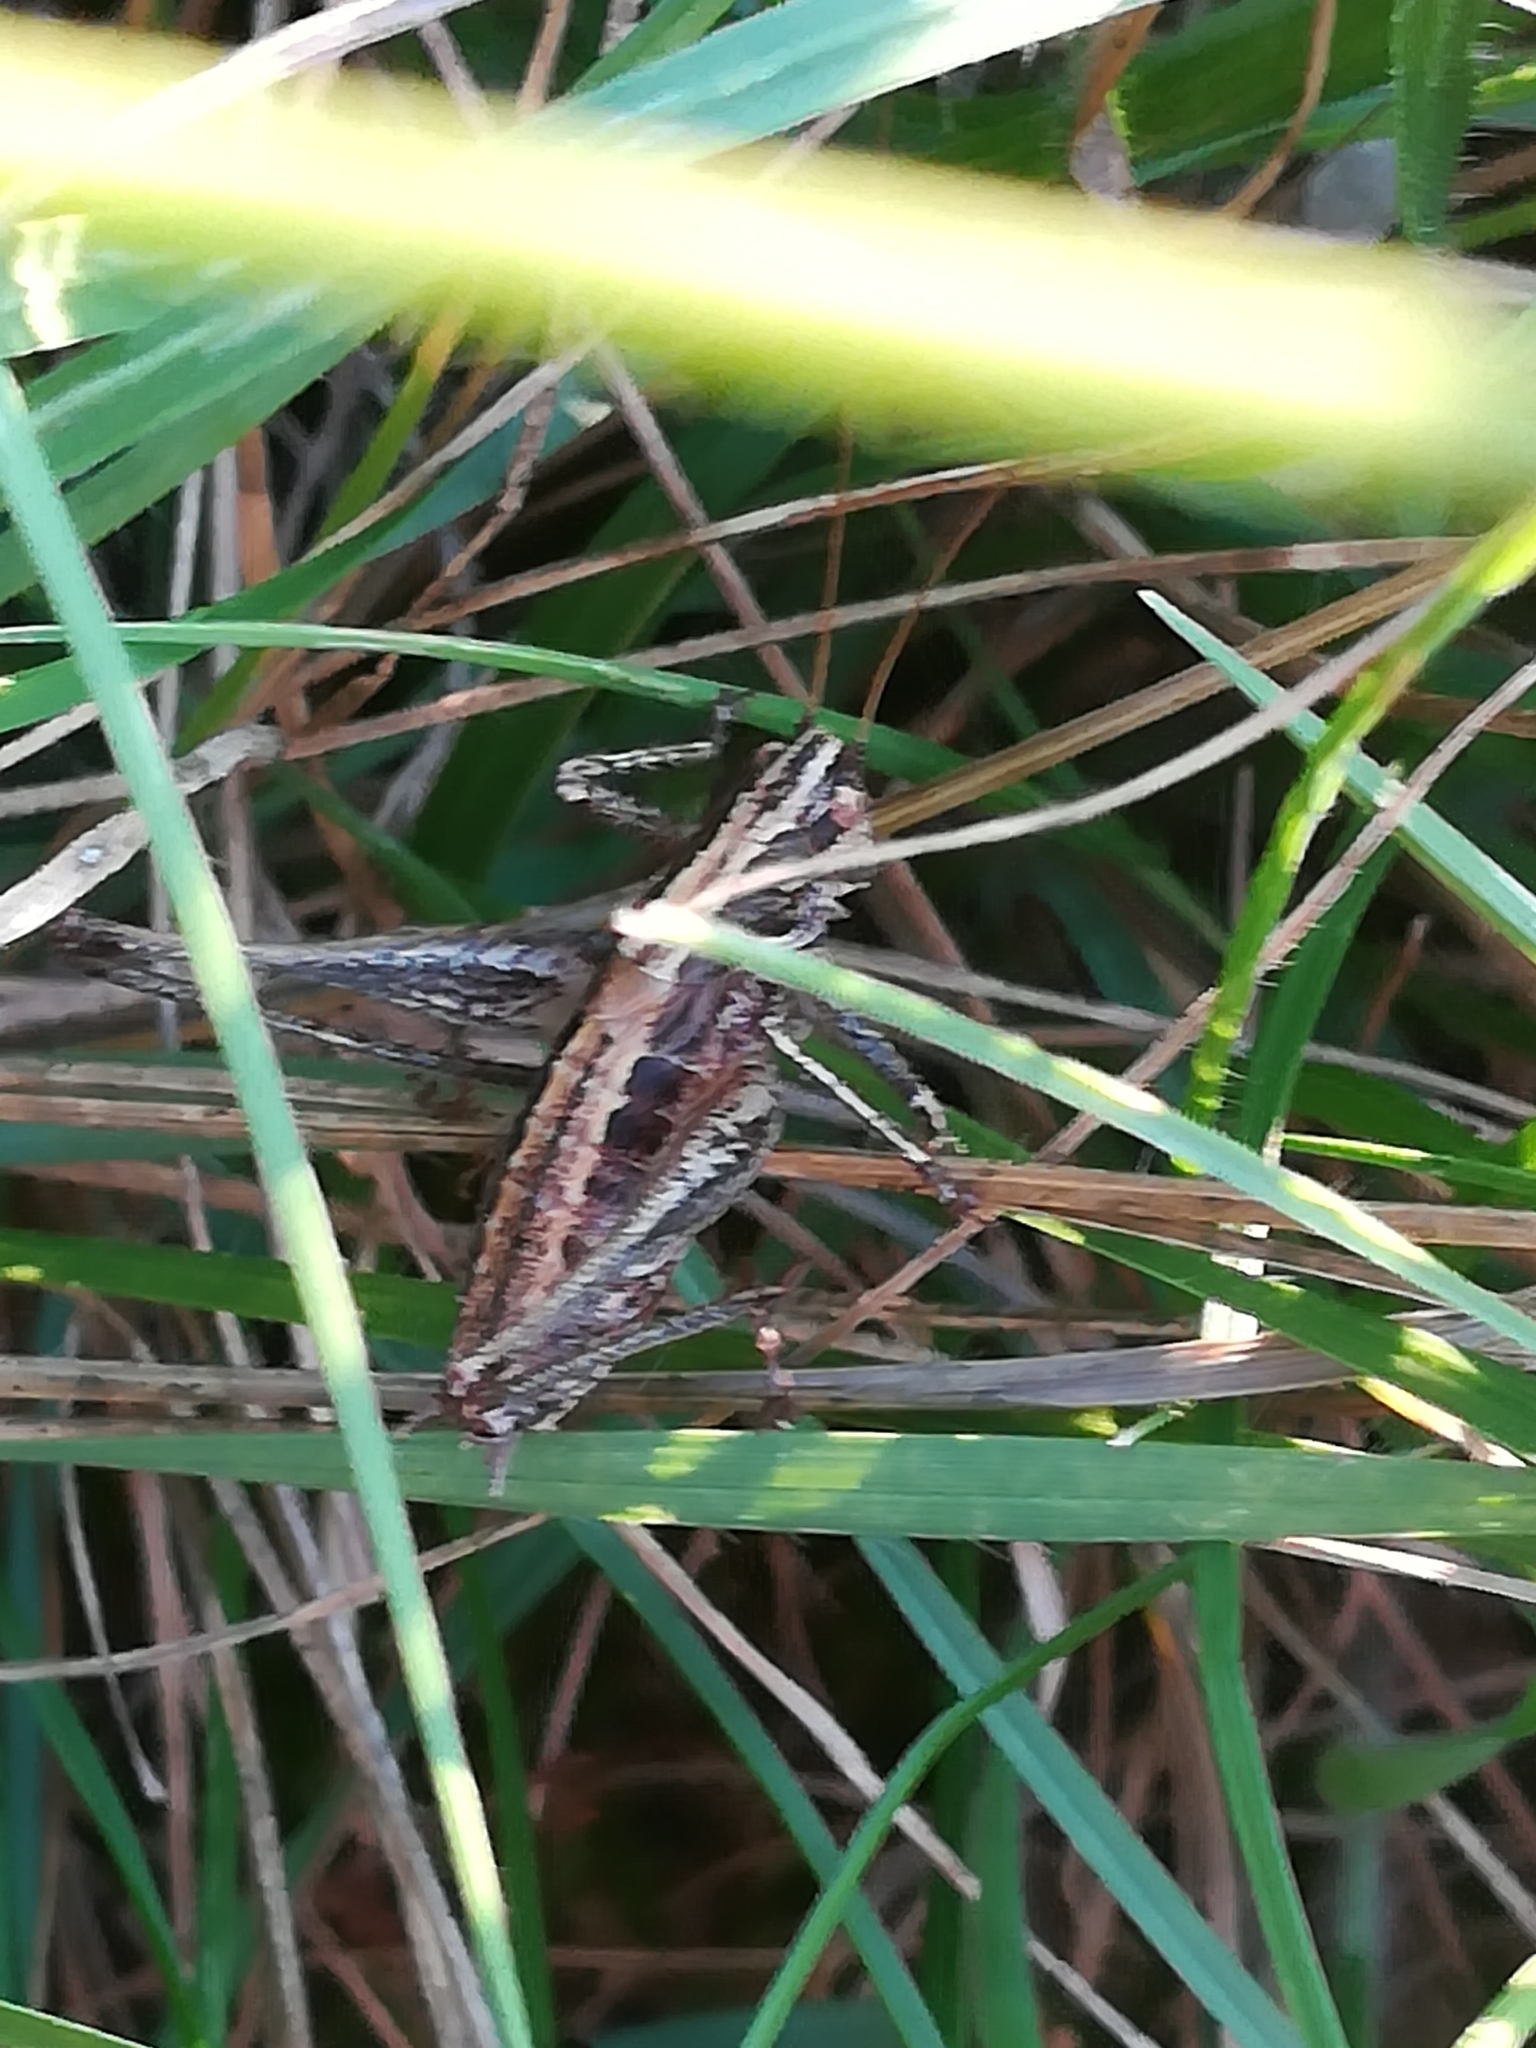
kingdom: Animalia
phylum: Arthropoda
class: Insecta
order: Orthoptera
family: Tettigoniidae
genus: Rhacocleis
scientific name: Rhacocleis germanica
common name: Mediterranean bush-cricket
